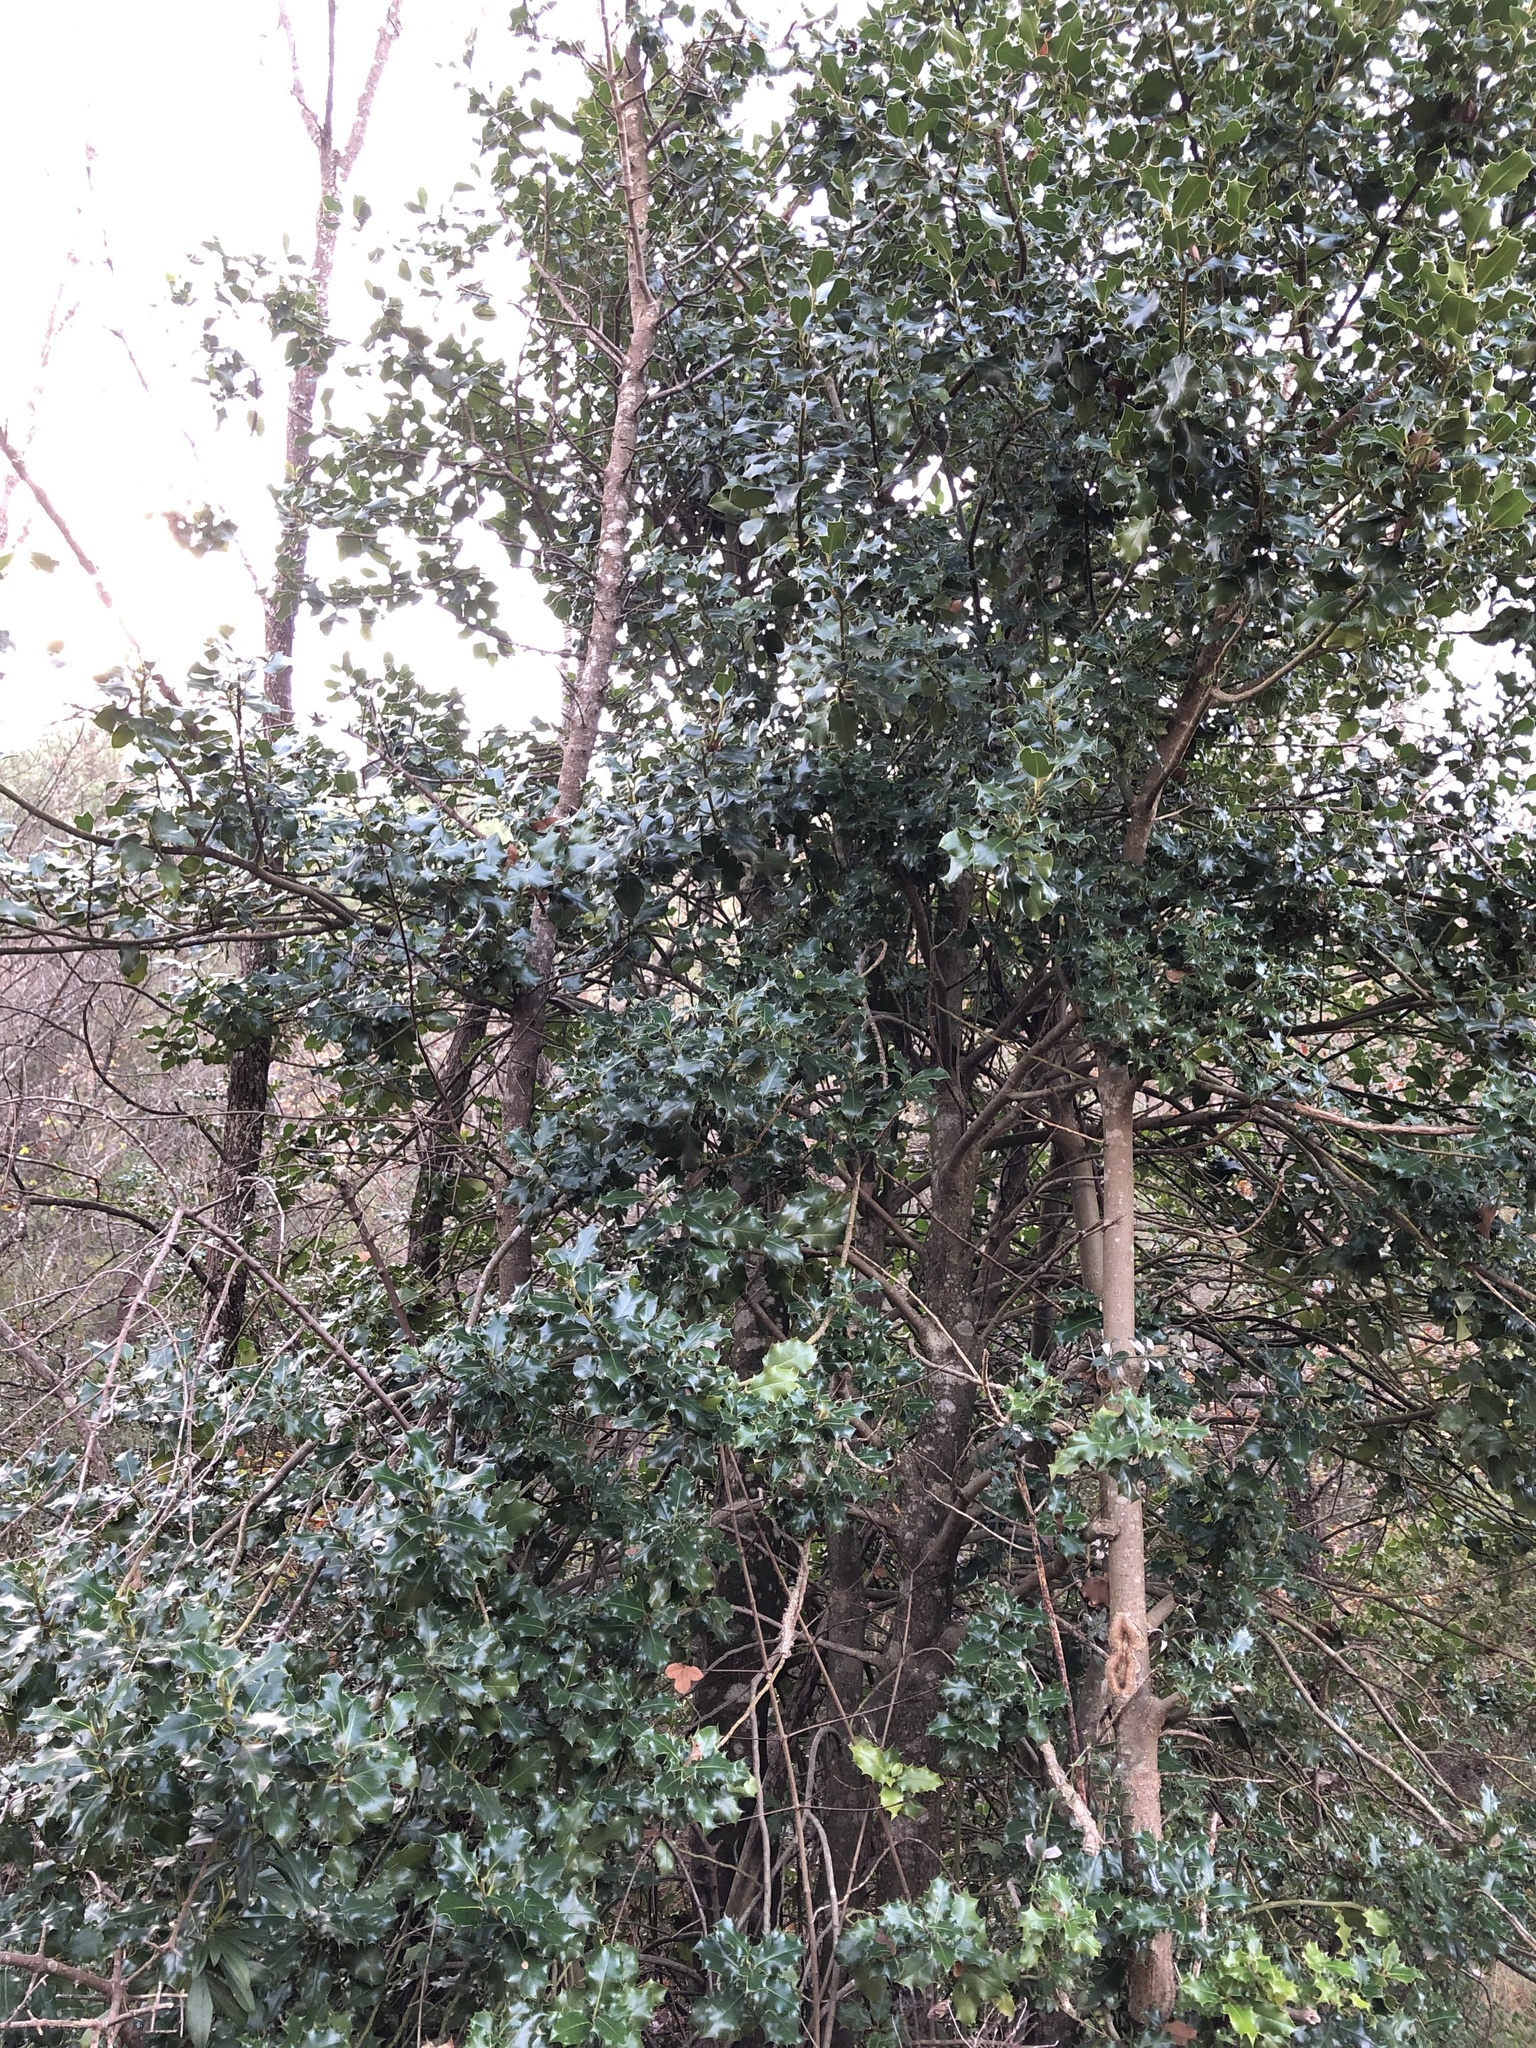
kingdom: Plantae
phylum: Tracheophyta
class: Magnoliopsida
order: Aquifoliales
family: Aquifoliaceae
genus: Ilex
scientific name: Ilex aquifolium
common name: English holly
